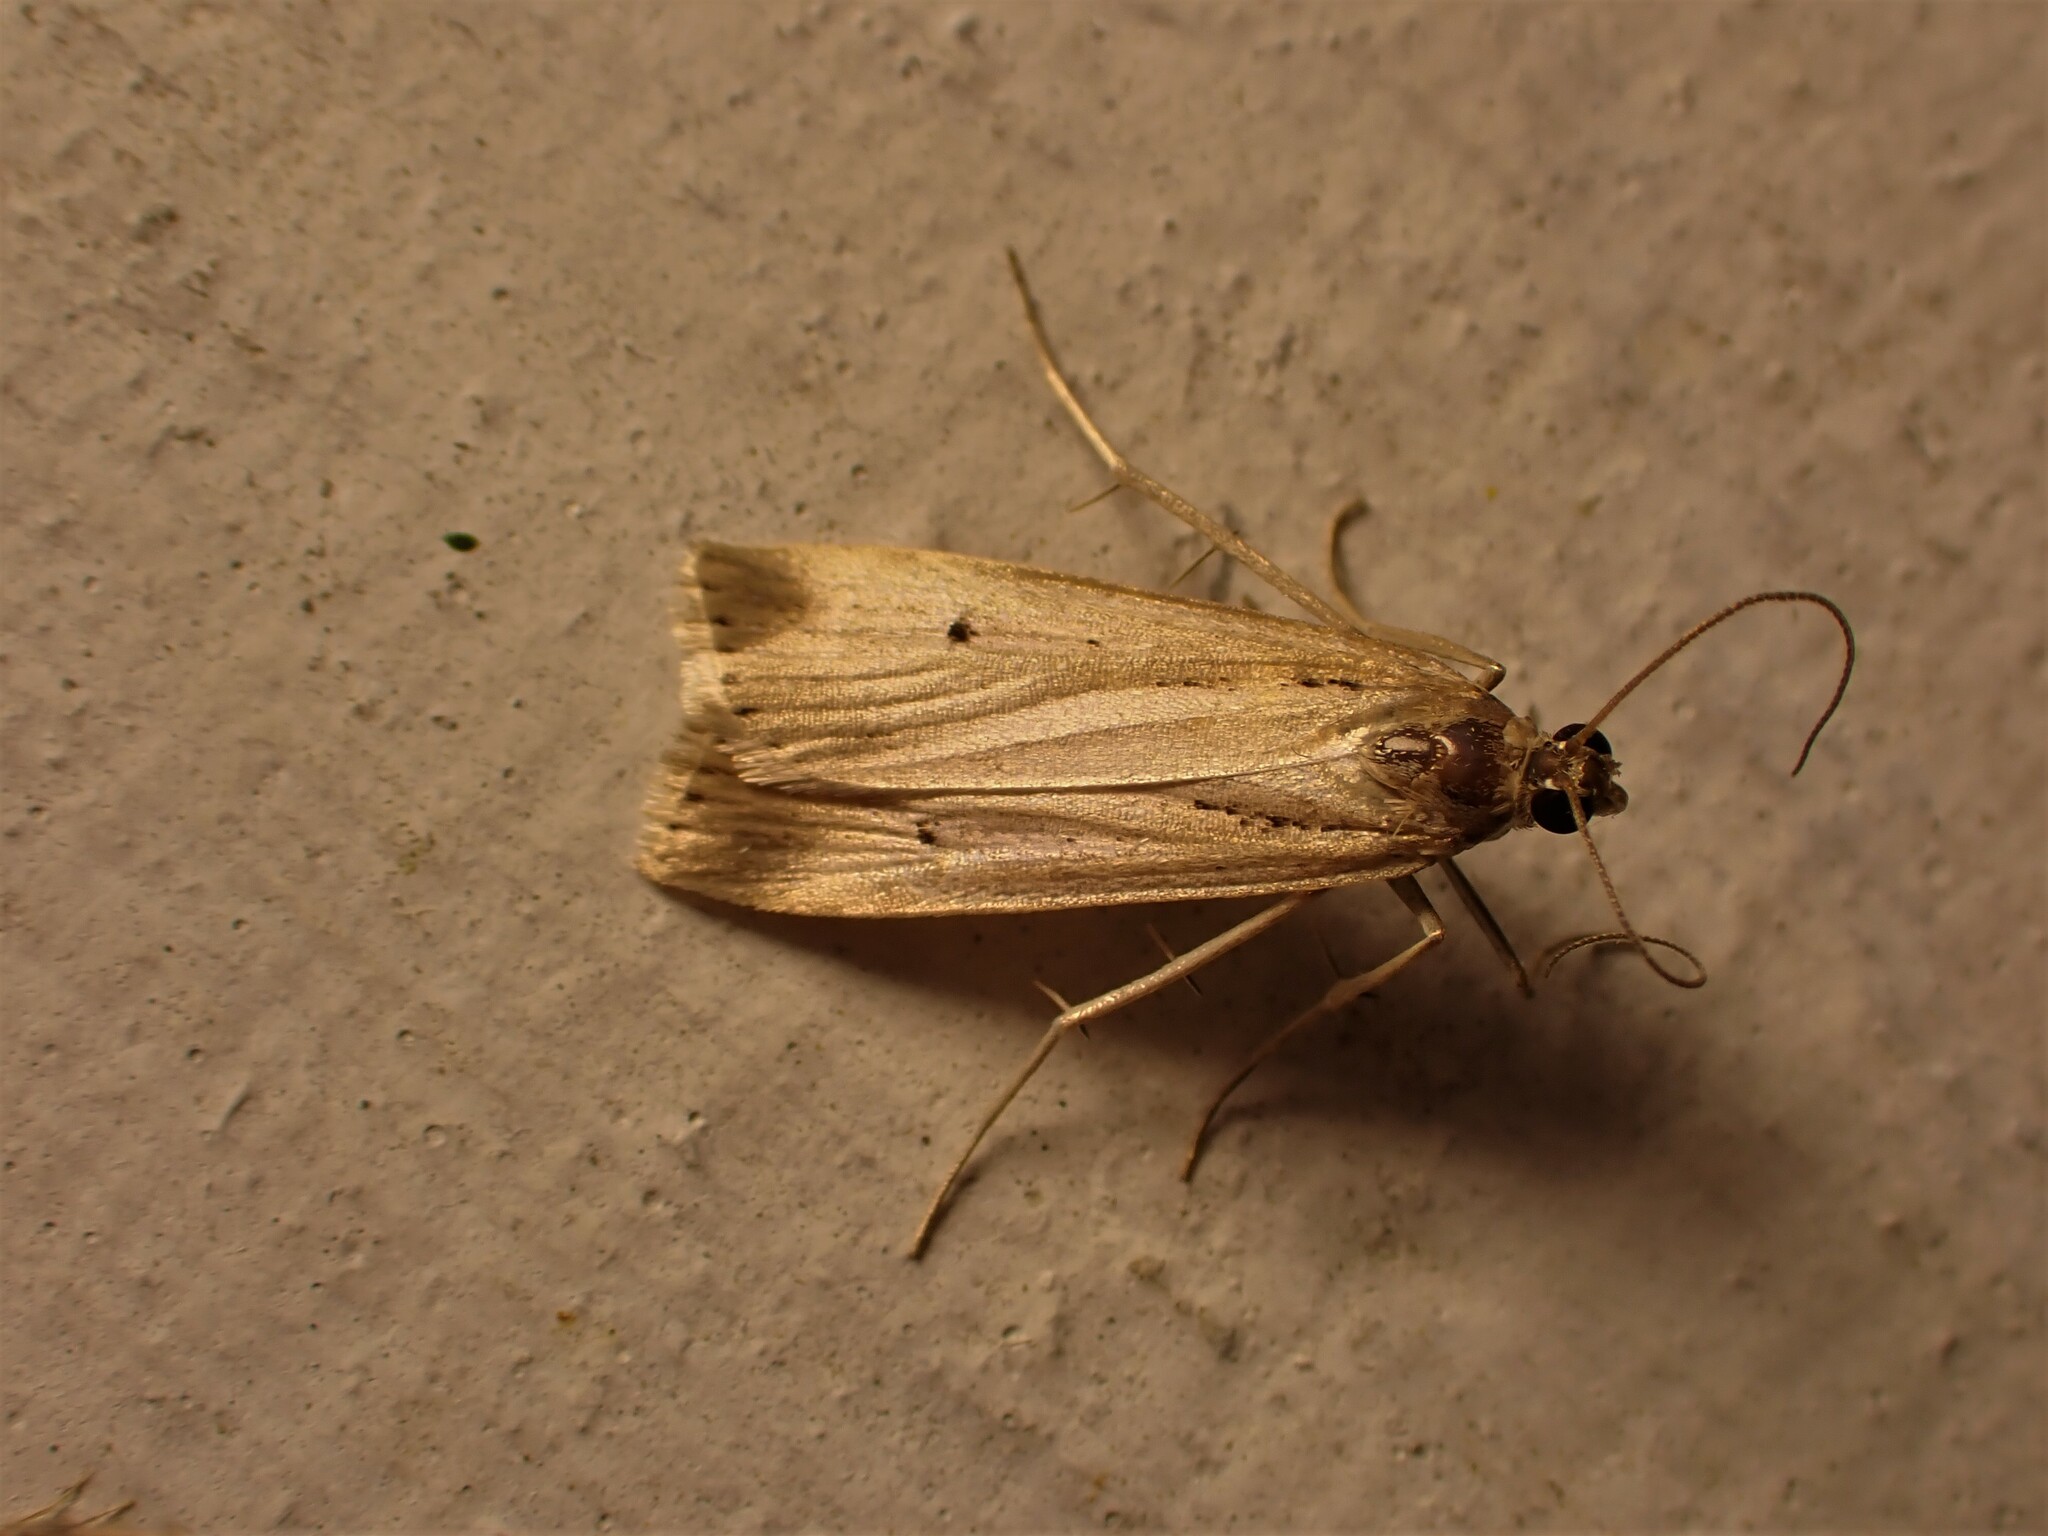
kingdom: Animalia
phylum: Arthropoda
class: Insecta
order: Lepidoptera
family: Crambidae
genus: Eudonia
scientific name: Eudonia sabulosella
